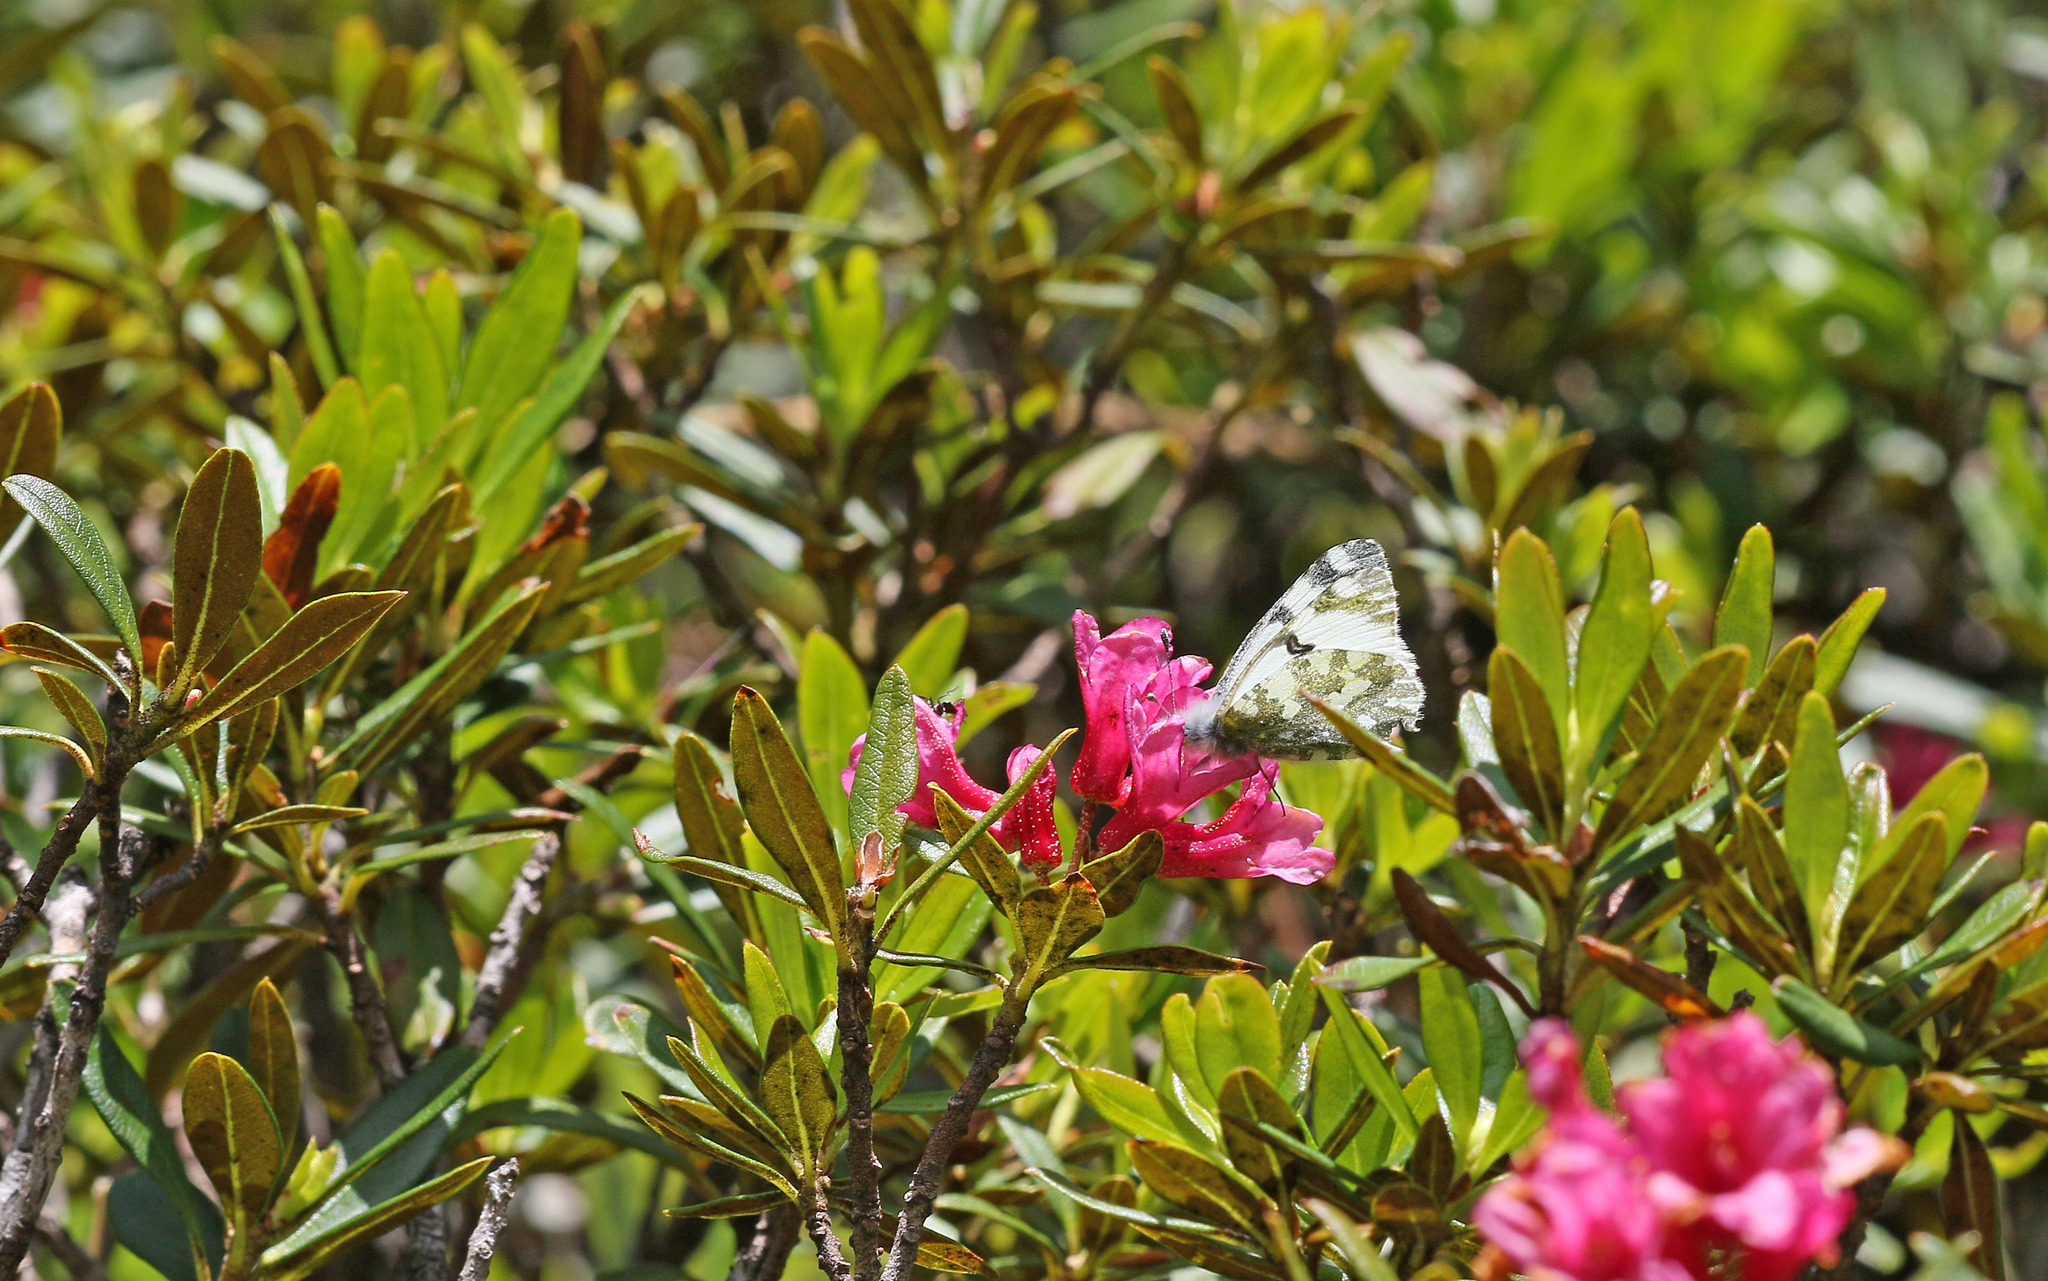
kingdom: Animalia
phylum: Arthropoda
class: Insecta
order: Lepidoptera
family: Pieridae
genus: Euchloe
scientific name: Euchloe simplonia
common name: Mountain dappled white
